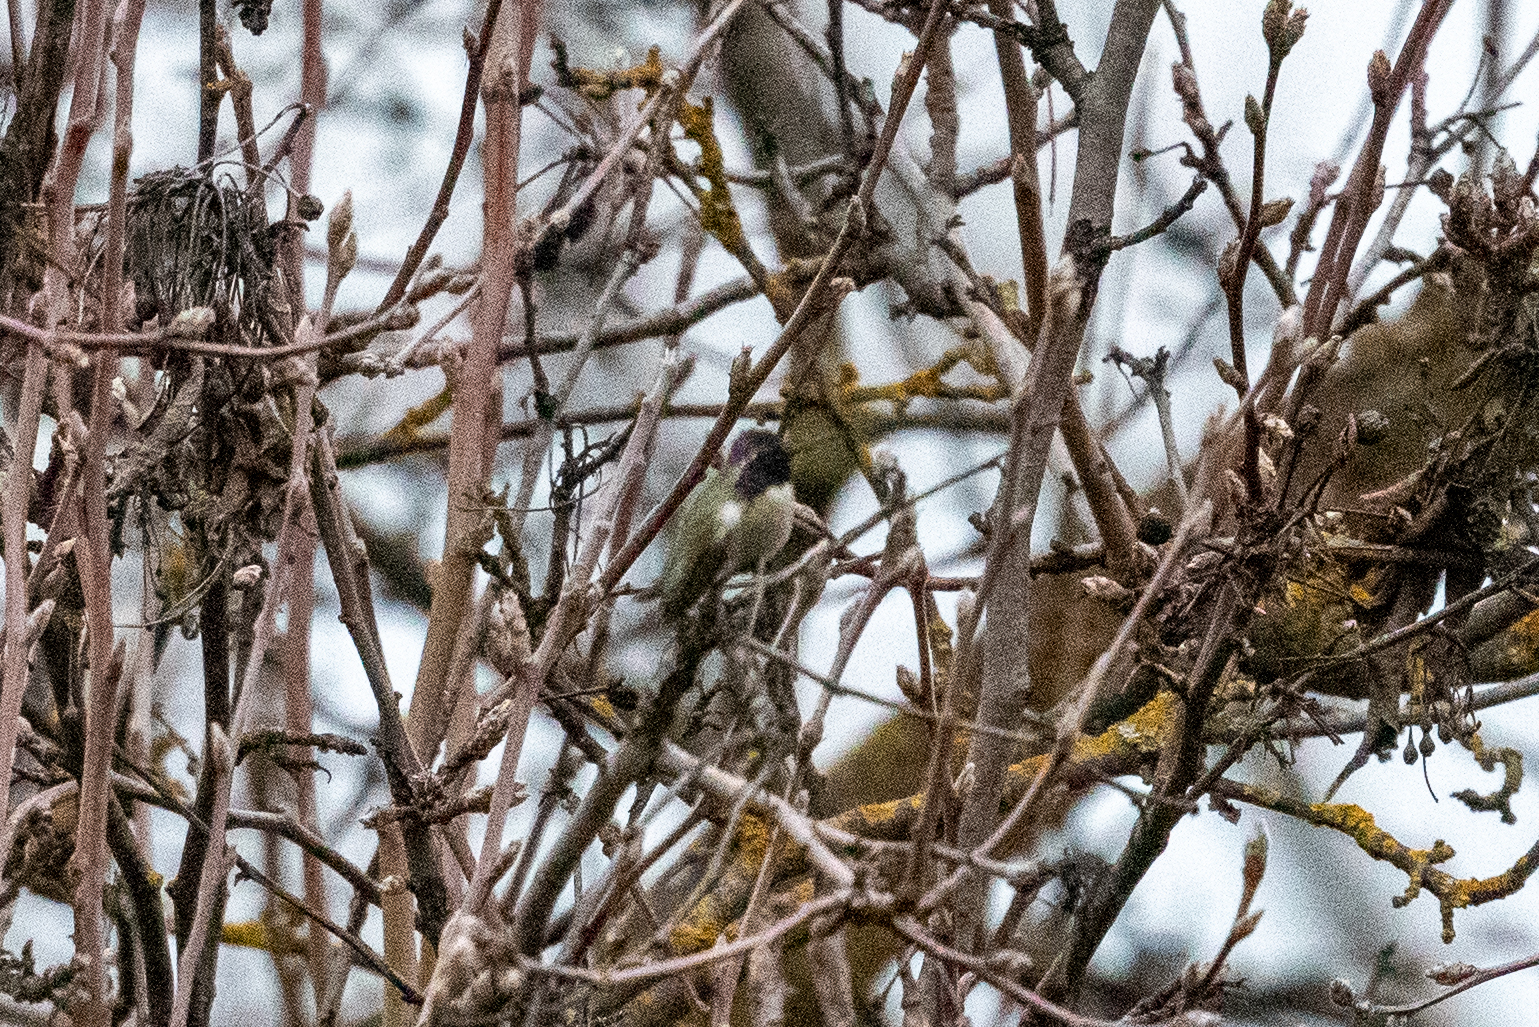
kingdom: Animalia
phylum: Chordata
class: Aves
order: Apodiformes
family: Trochilidae
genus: Calypte
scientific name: Calypte costae
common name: Costa's hummingbird
